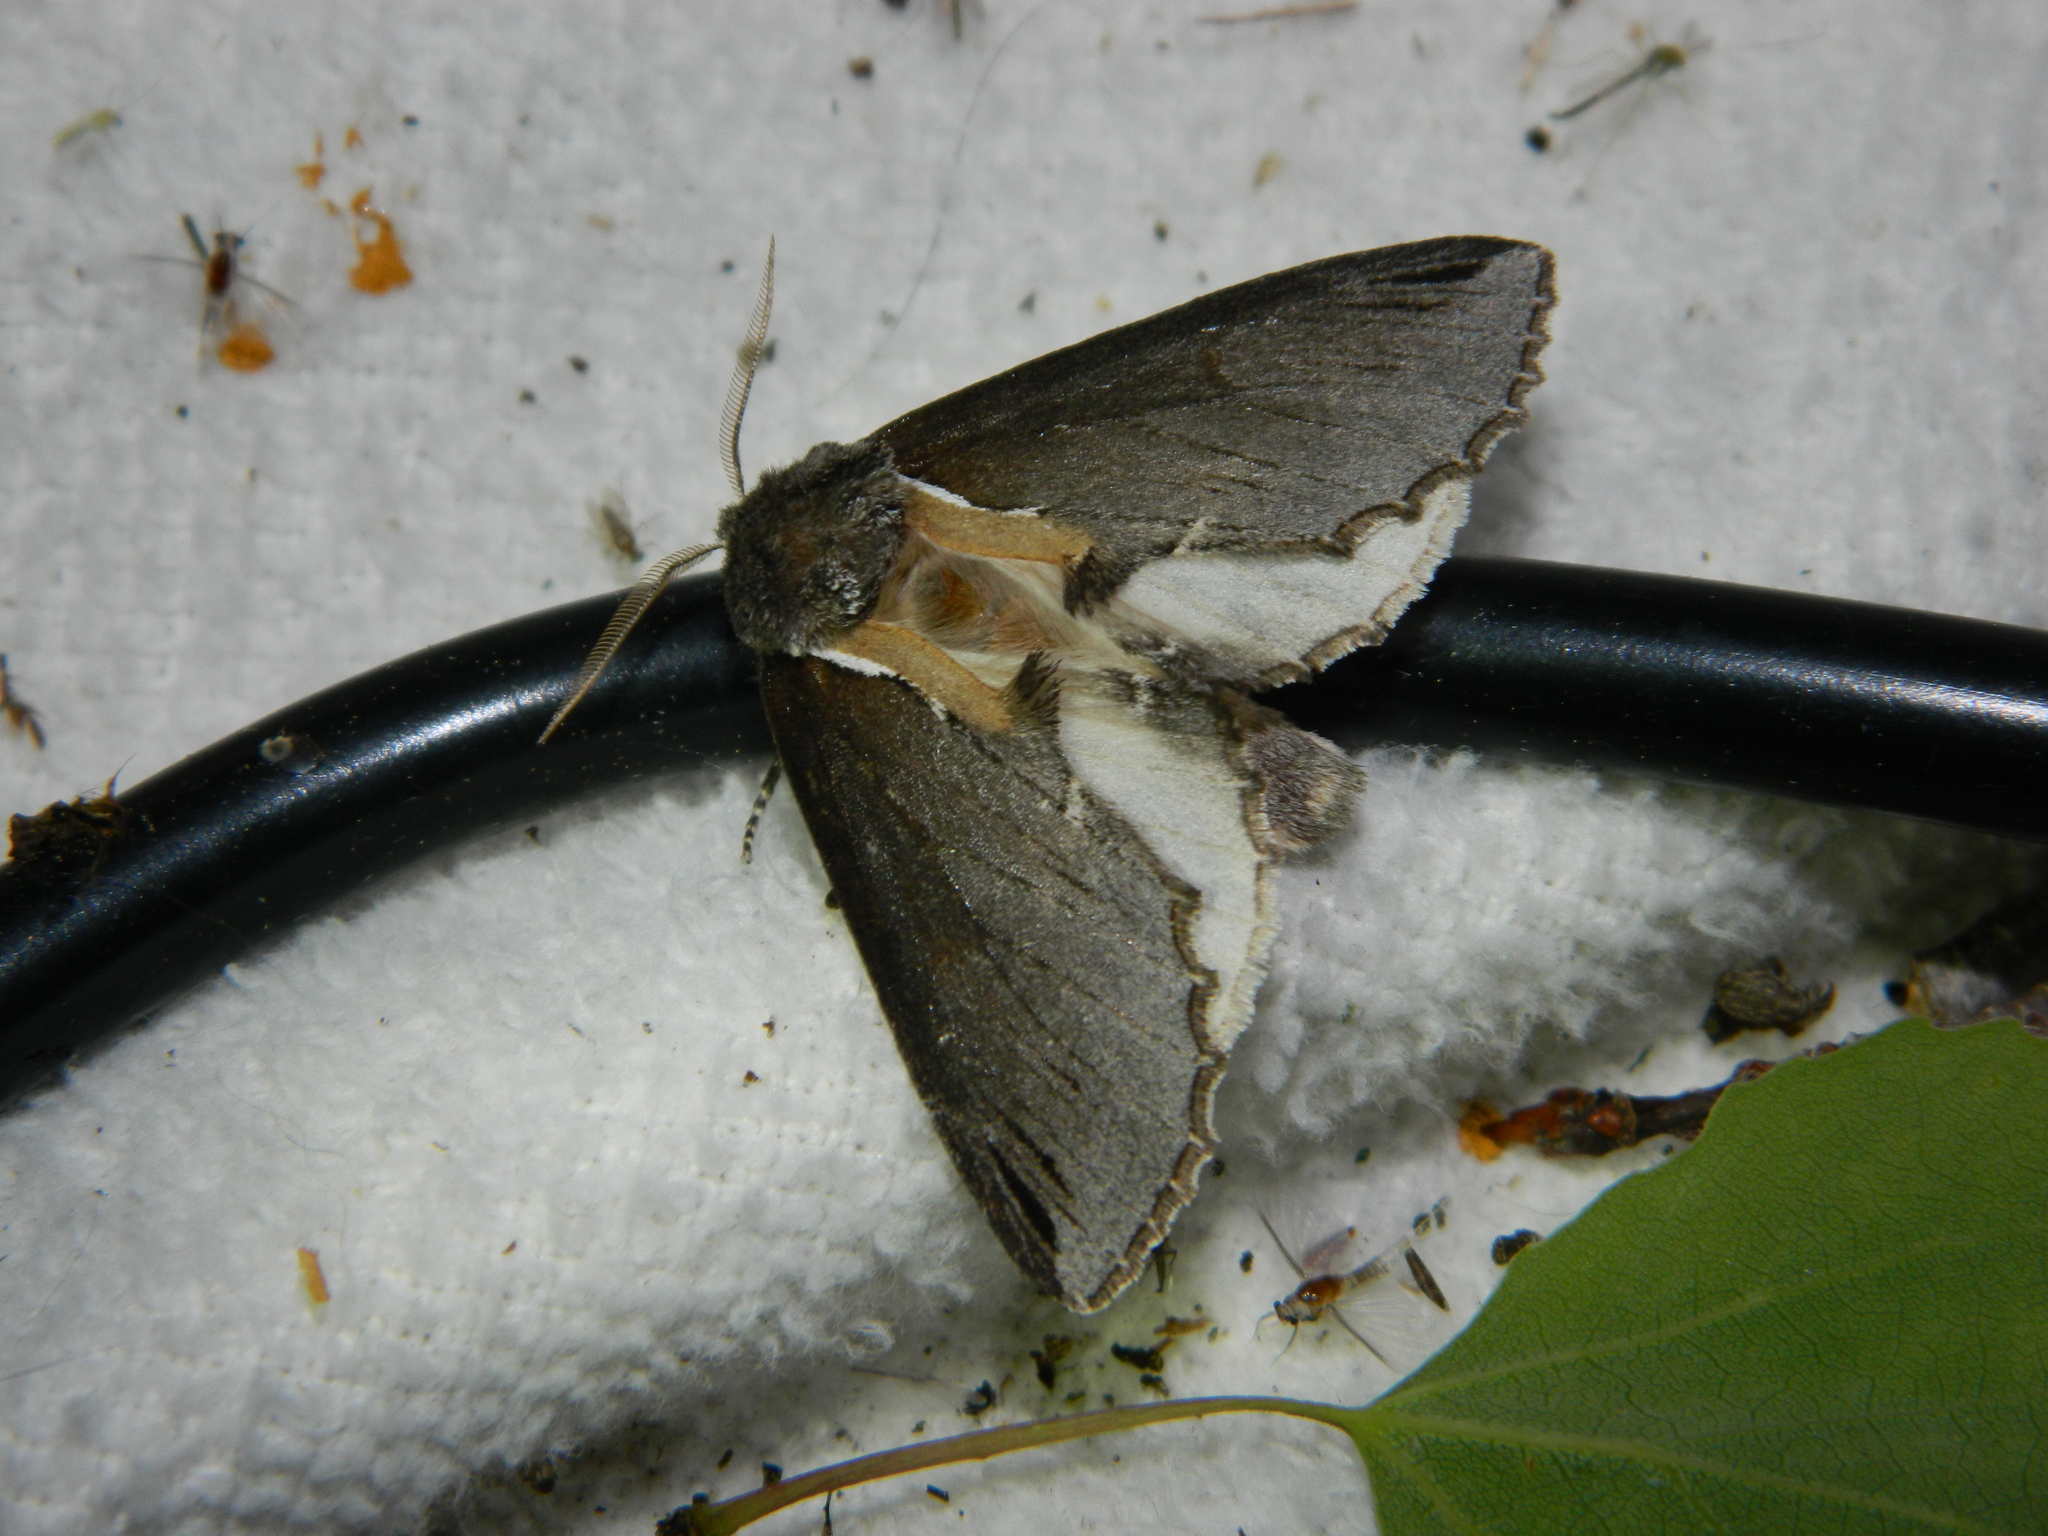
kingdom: Animalia
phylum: Arthropoda
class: Insecta
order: Lepidoptera
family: Notodontidae
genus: Pheosidea
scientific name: Pheosidea elegans
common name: Elegant prominent
